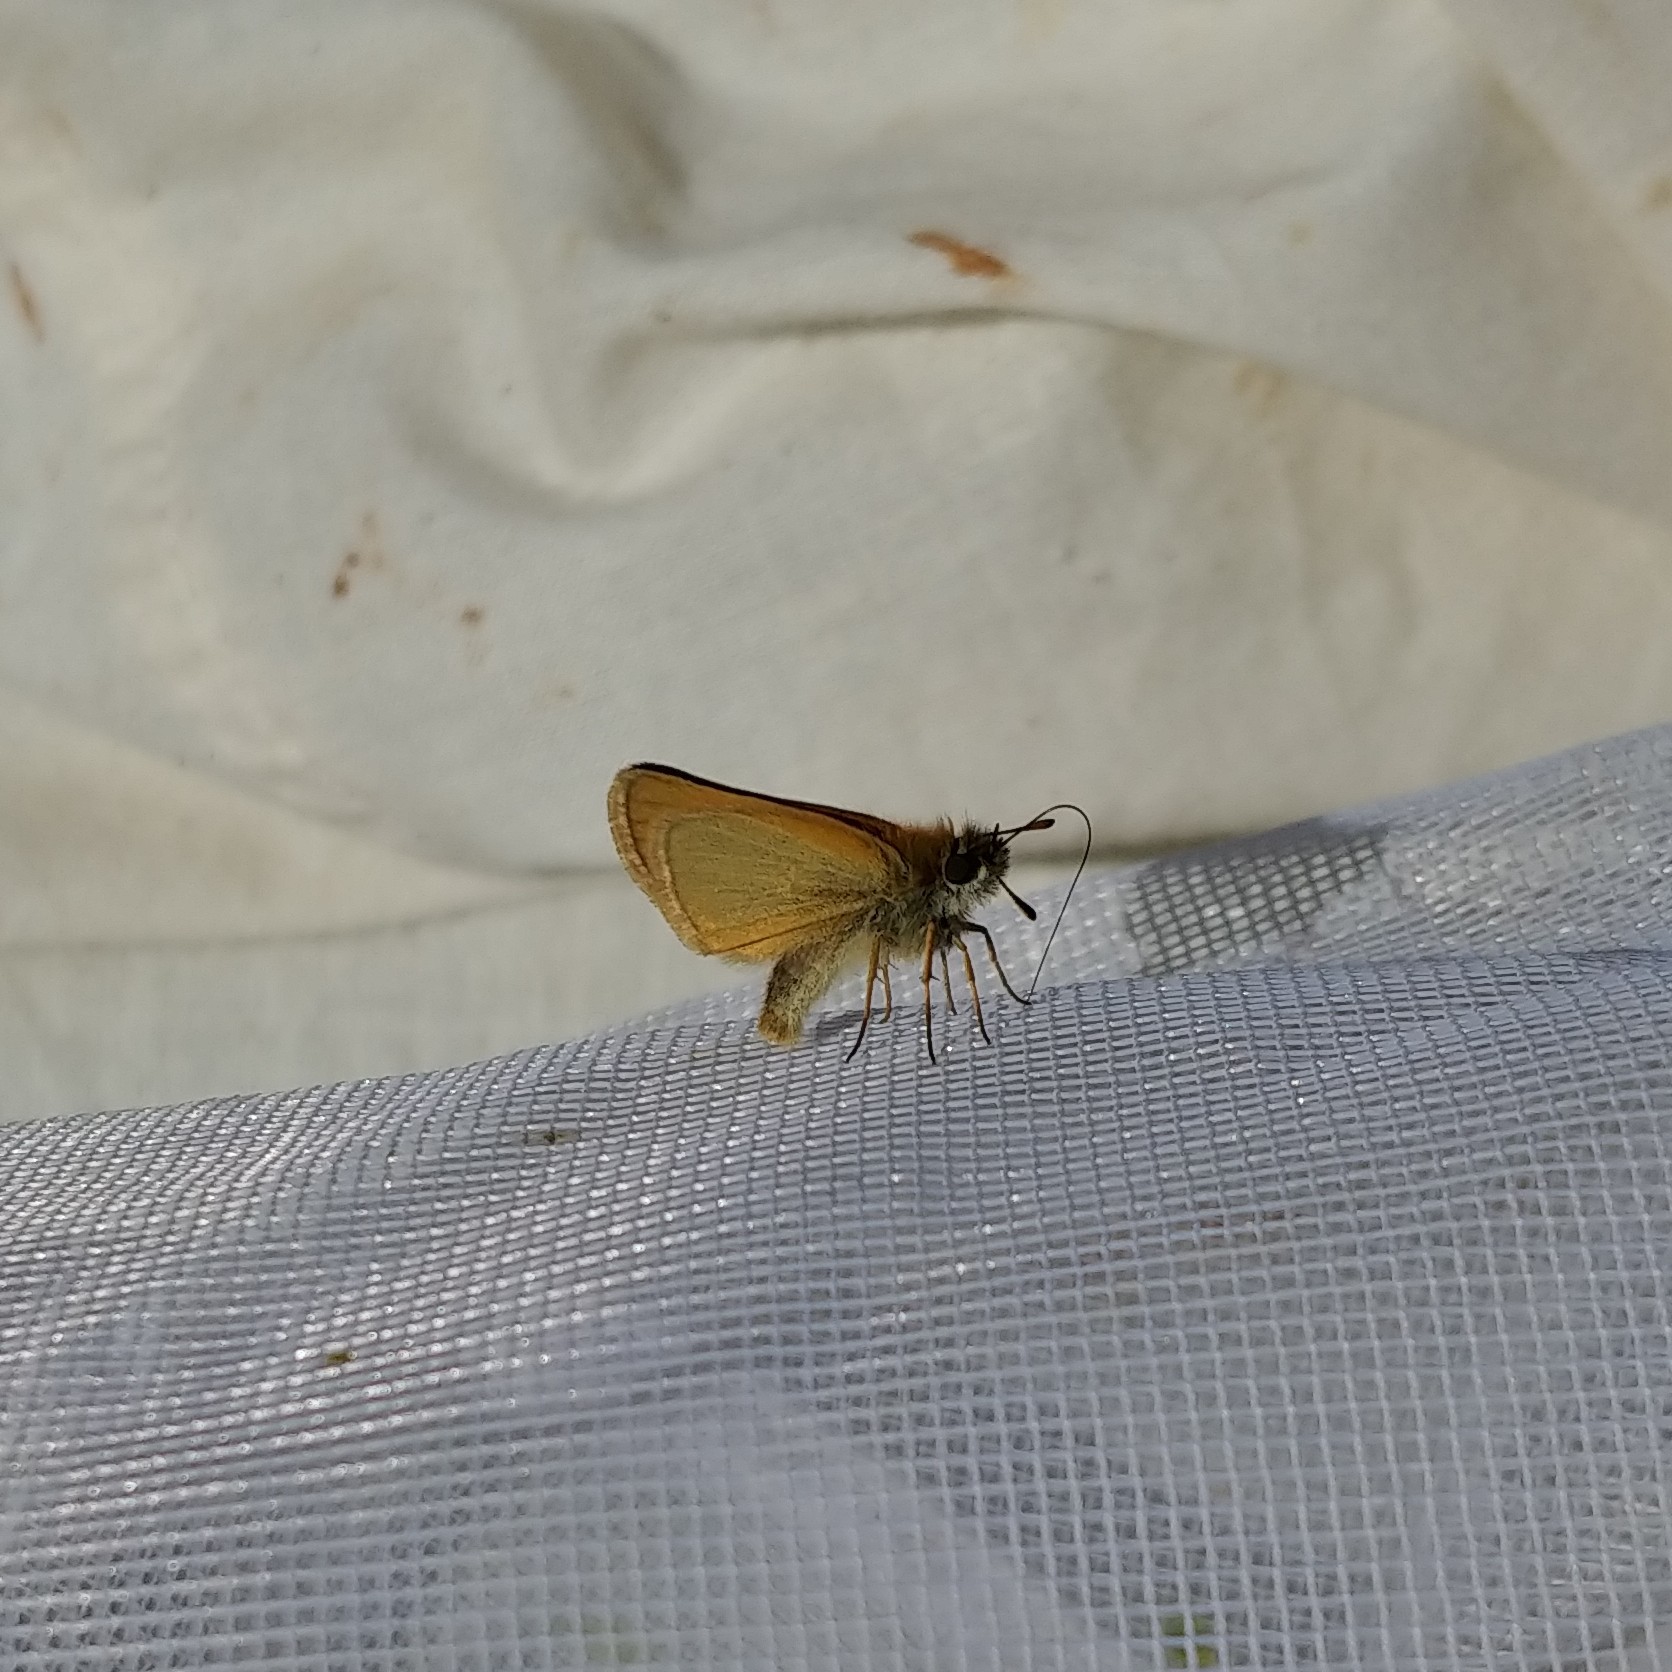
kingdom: Animalia
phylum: Arthropoda
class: Insecta
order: Lepidoptera
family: Hesperiidae
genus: Thymelicus
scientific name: Thymelicus lineola
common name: Essex skipper
